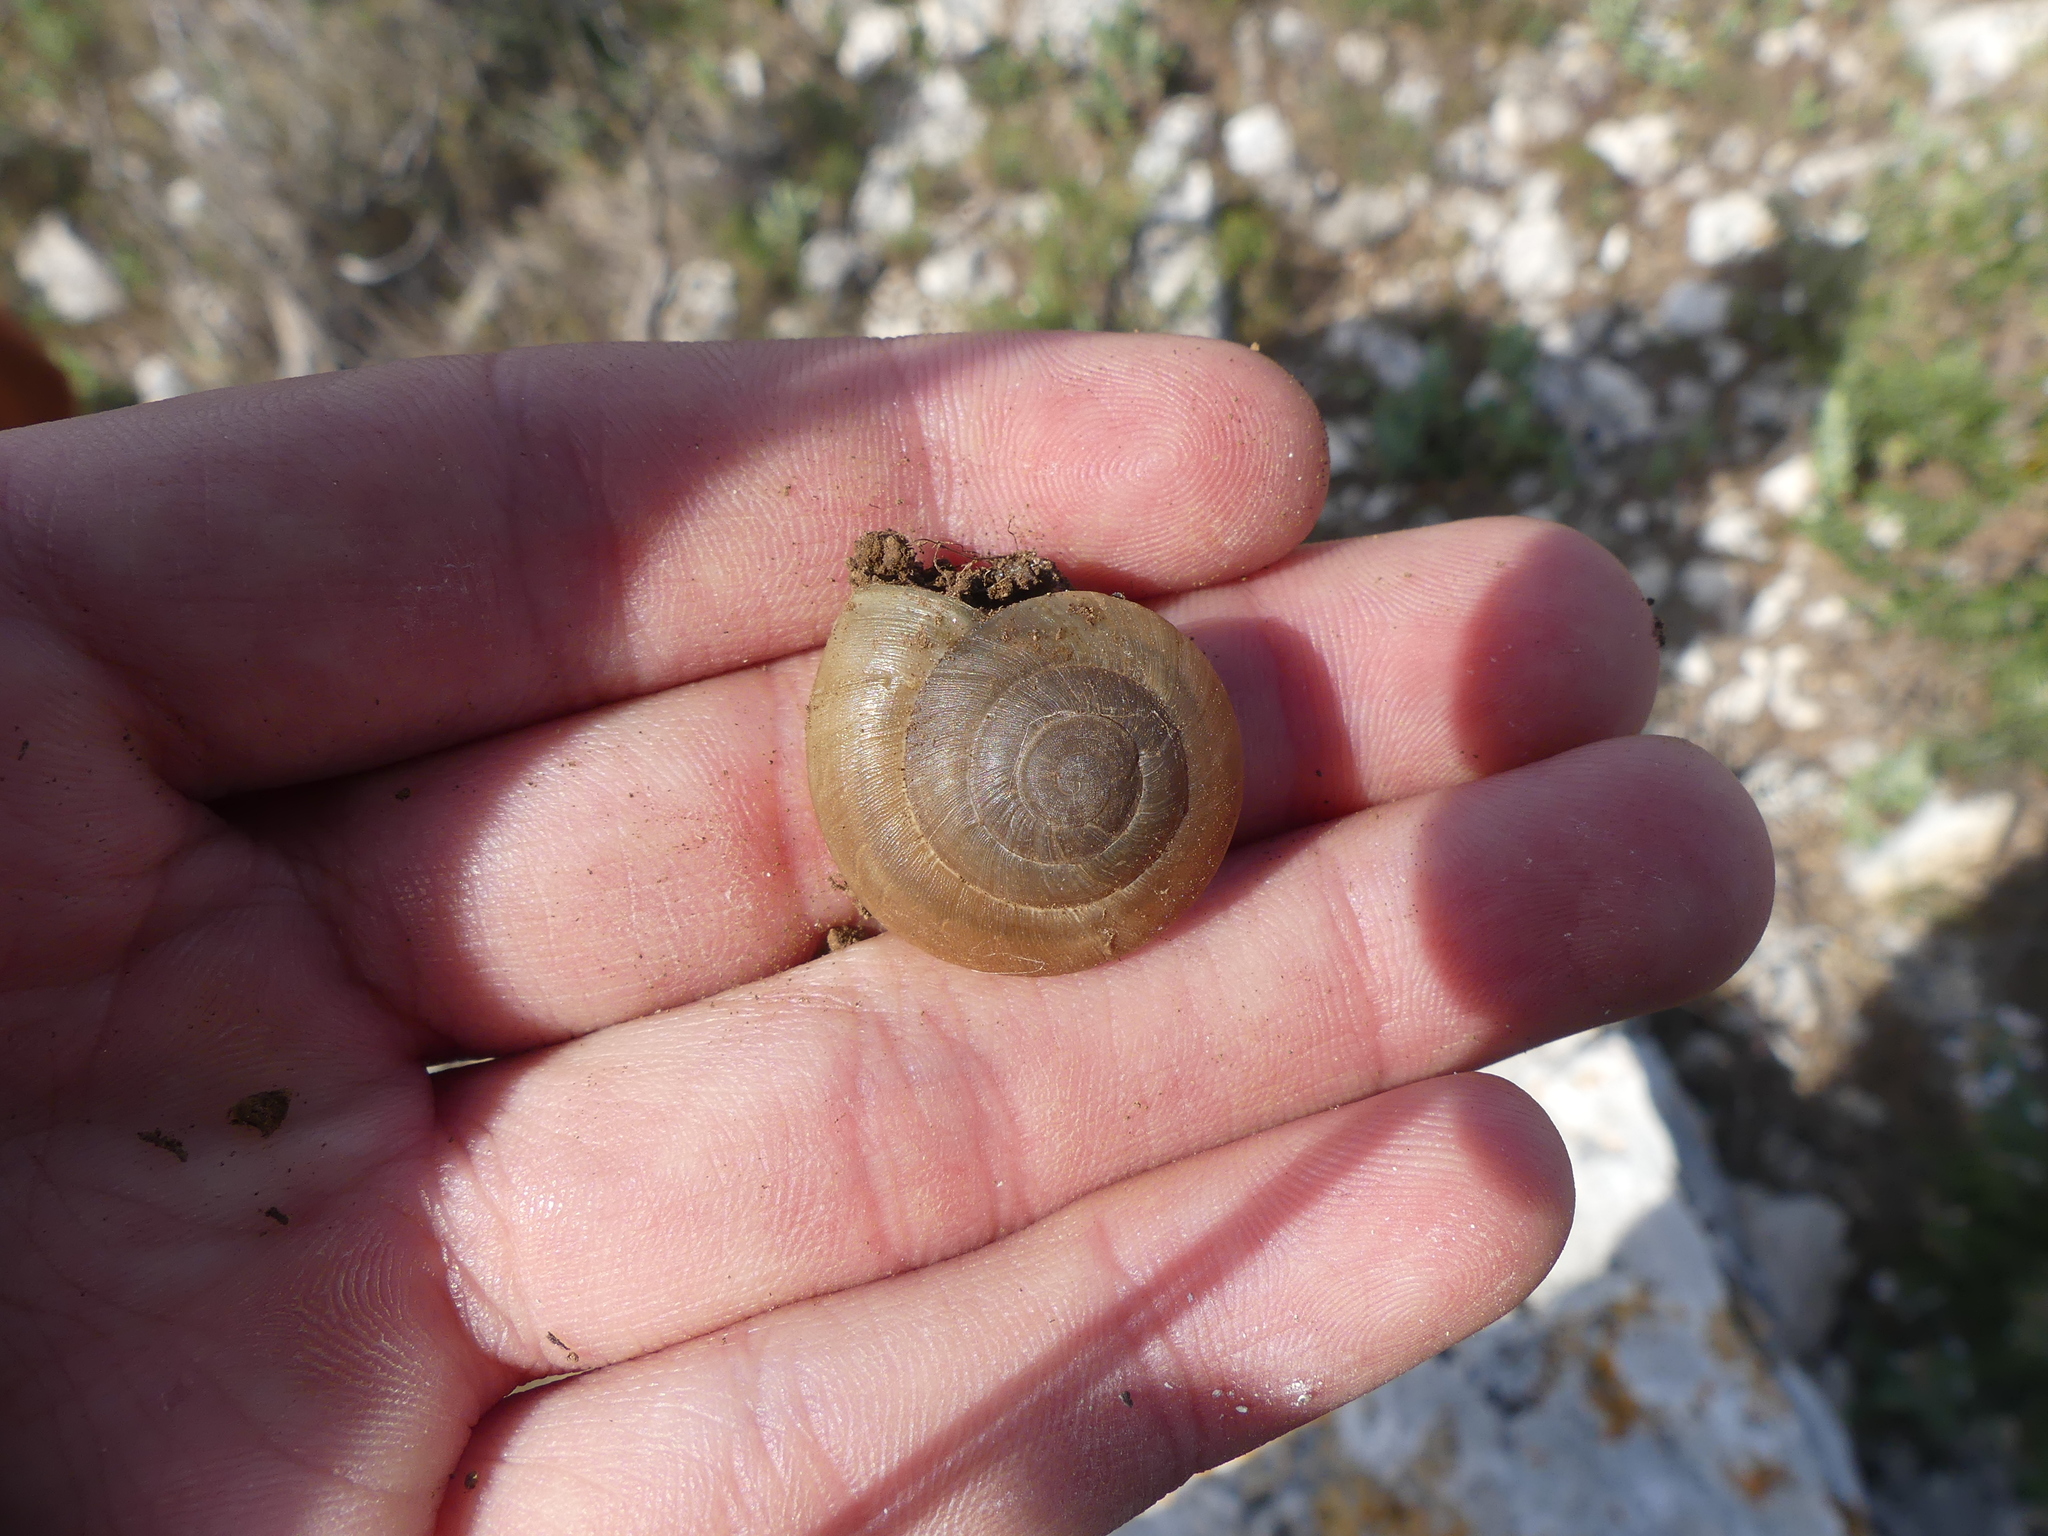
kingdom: Animalia
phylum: Mollusca
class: Gastropoda
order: Stylommatophora
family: Zonitidae
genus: Zonites
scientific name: Zonites algirus
